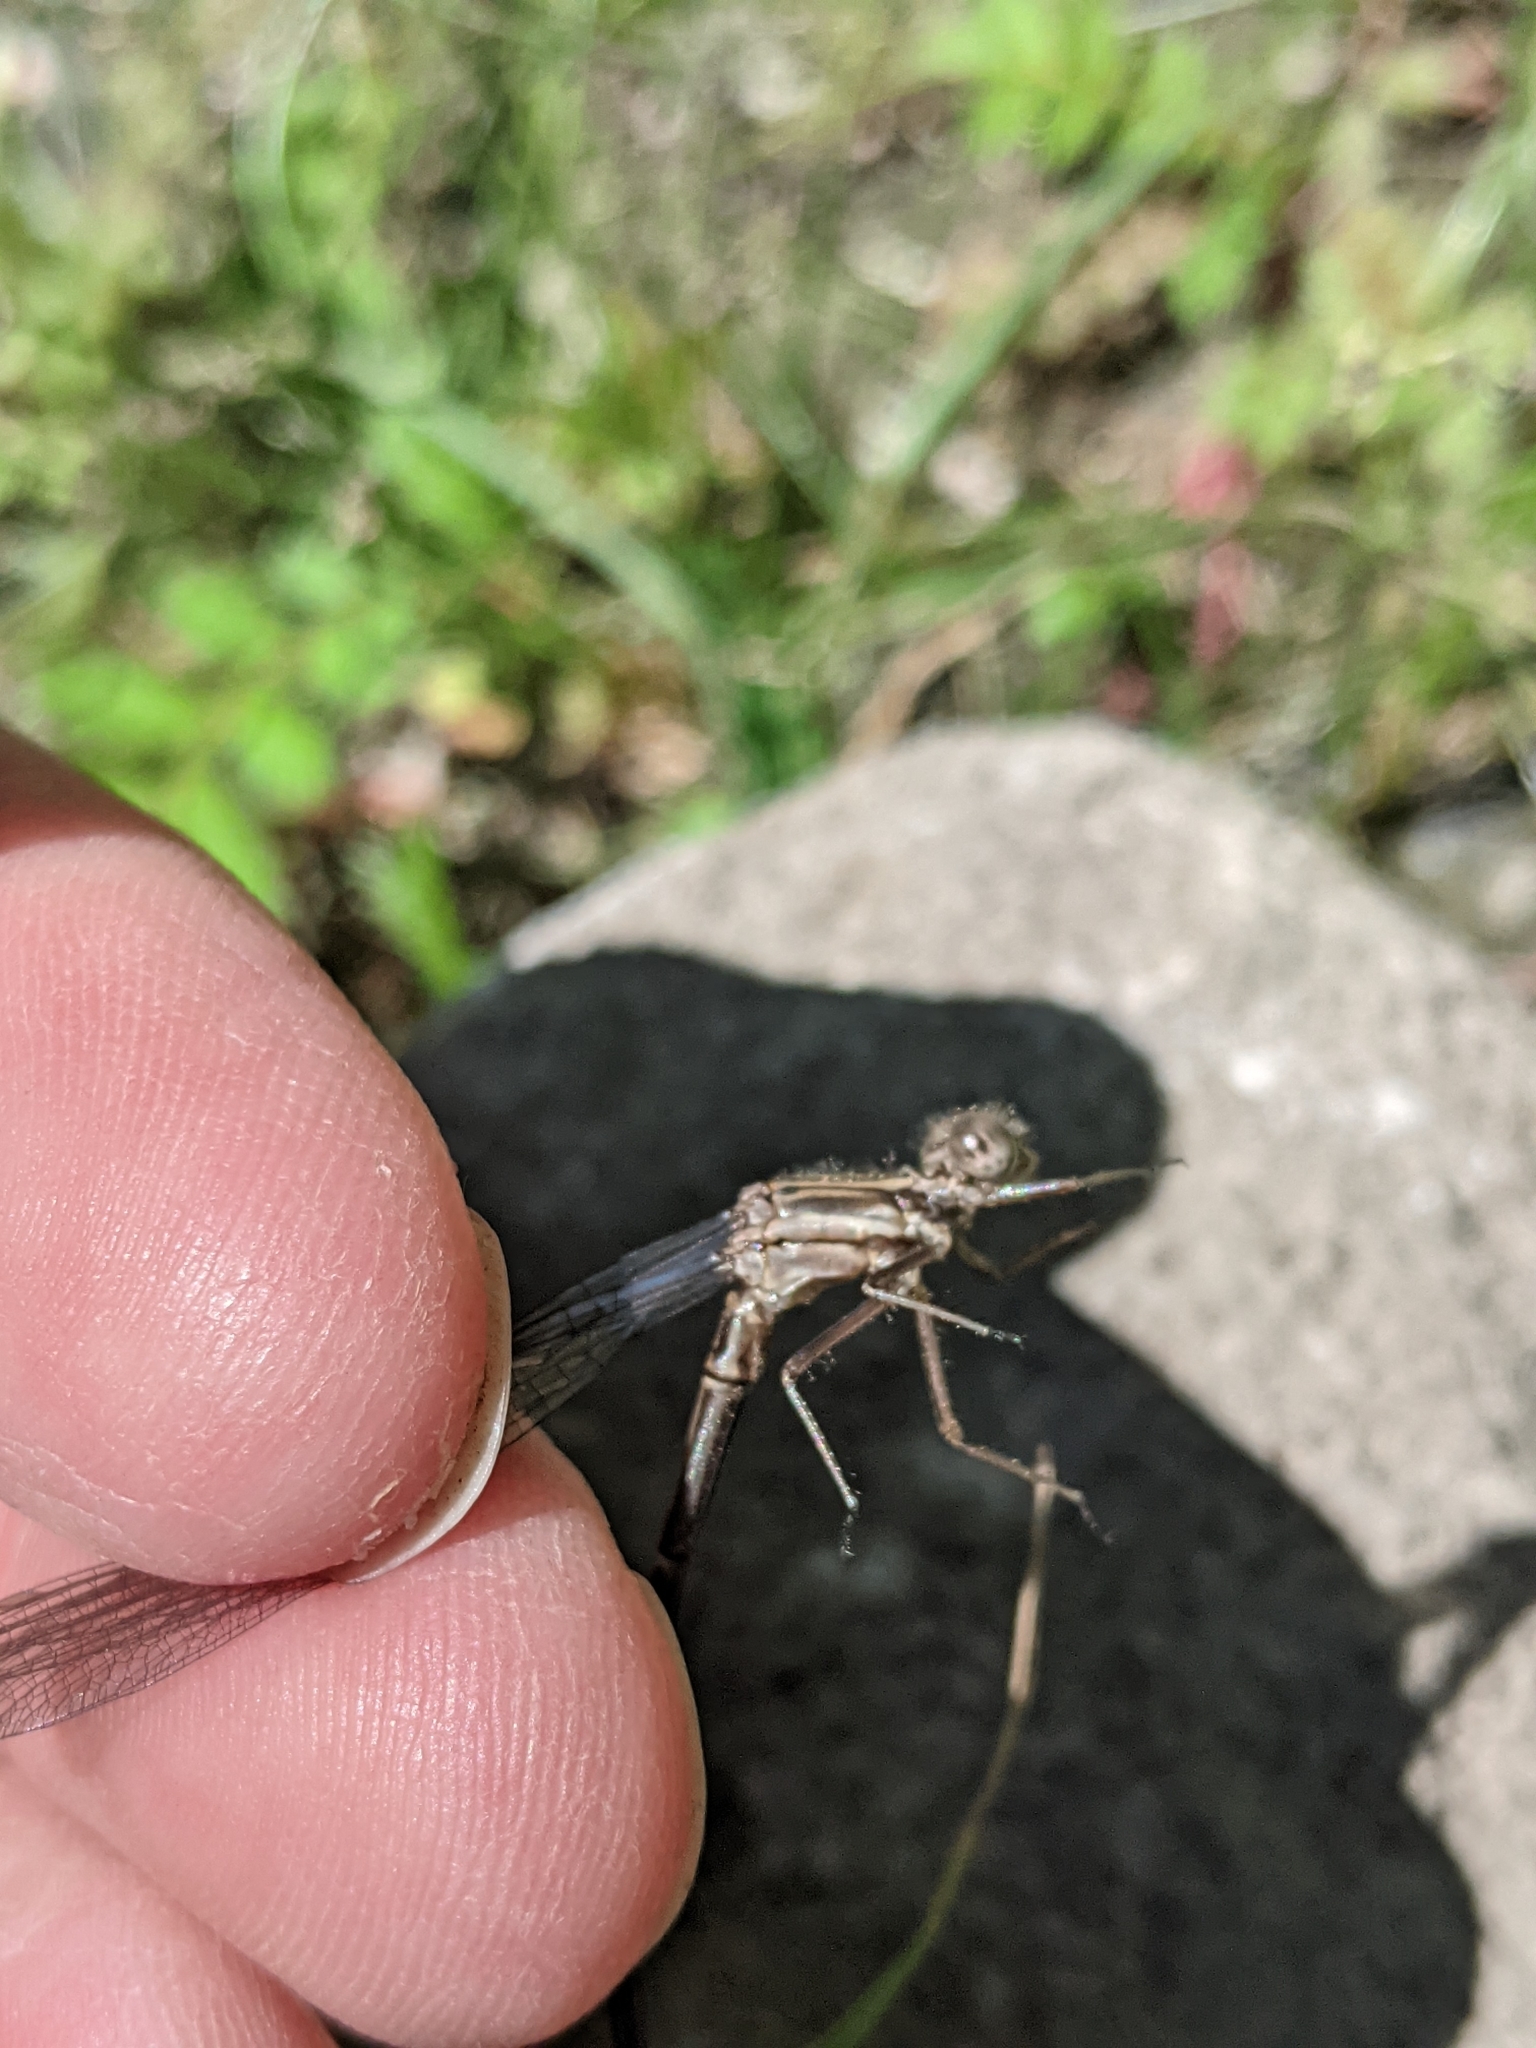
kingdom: Animalia
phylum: Arthropoda
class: Insecta
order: Odonata
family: Coenagrionidae
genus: Argia
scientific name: Argia moesta
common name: Powdered dancer
